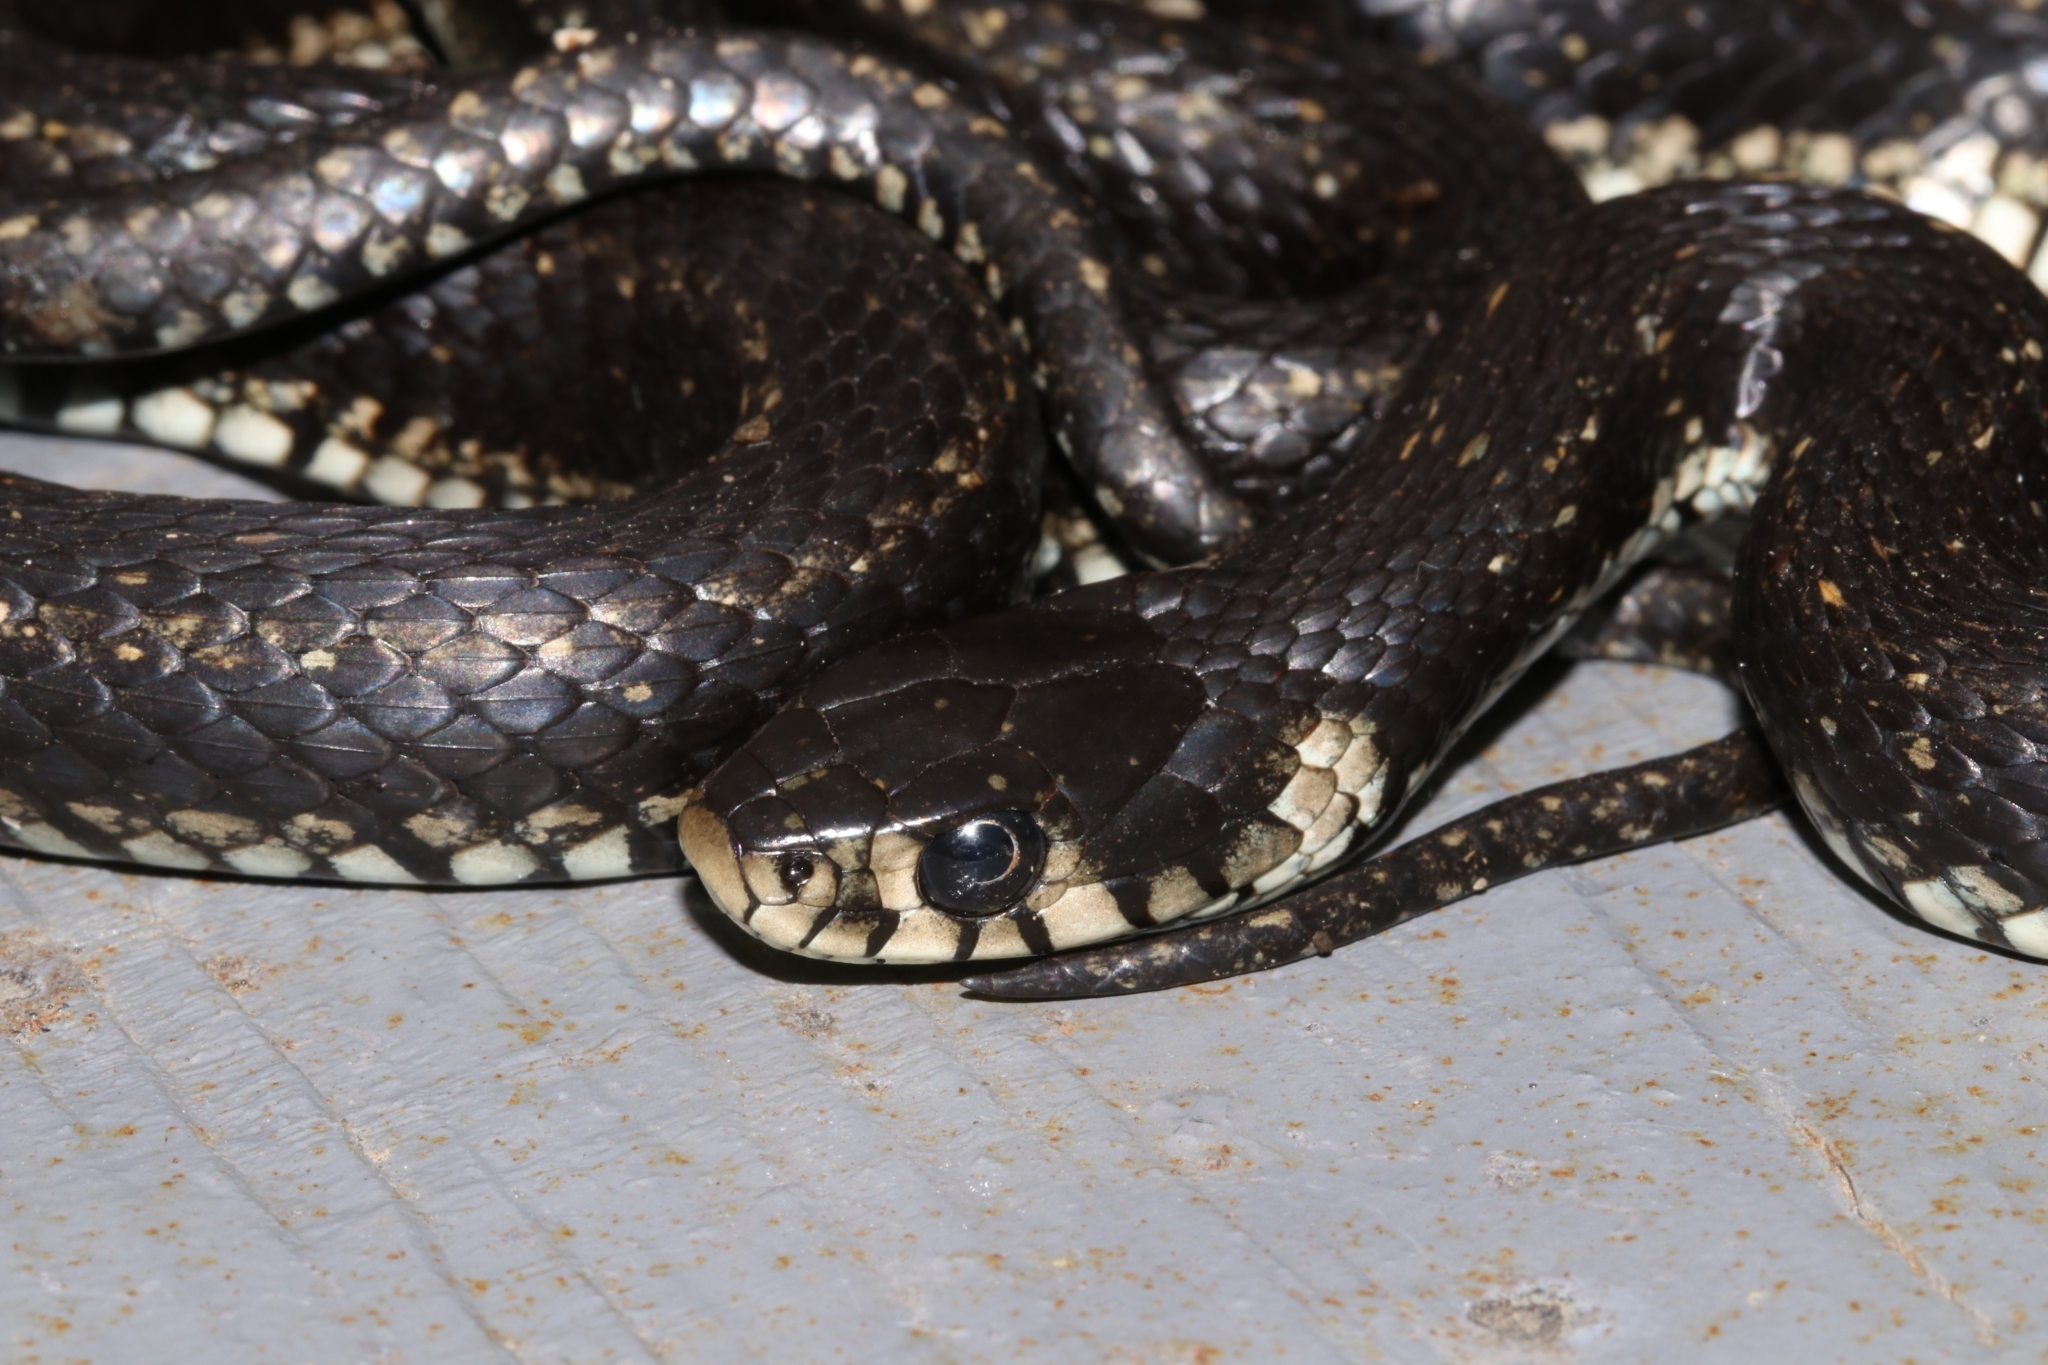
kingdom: Animalia
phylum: Chordata
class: Squamata
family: Colubridae
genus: Natrix
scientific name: Natrix natrix
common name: Grass snake
